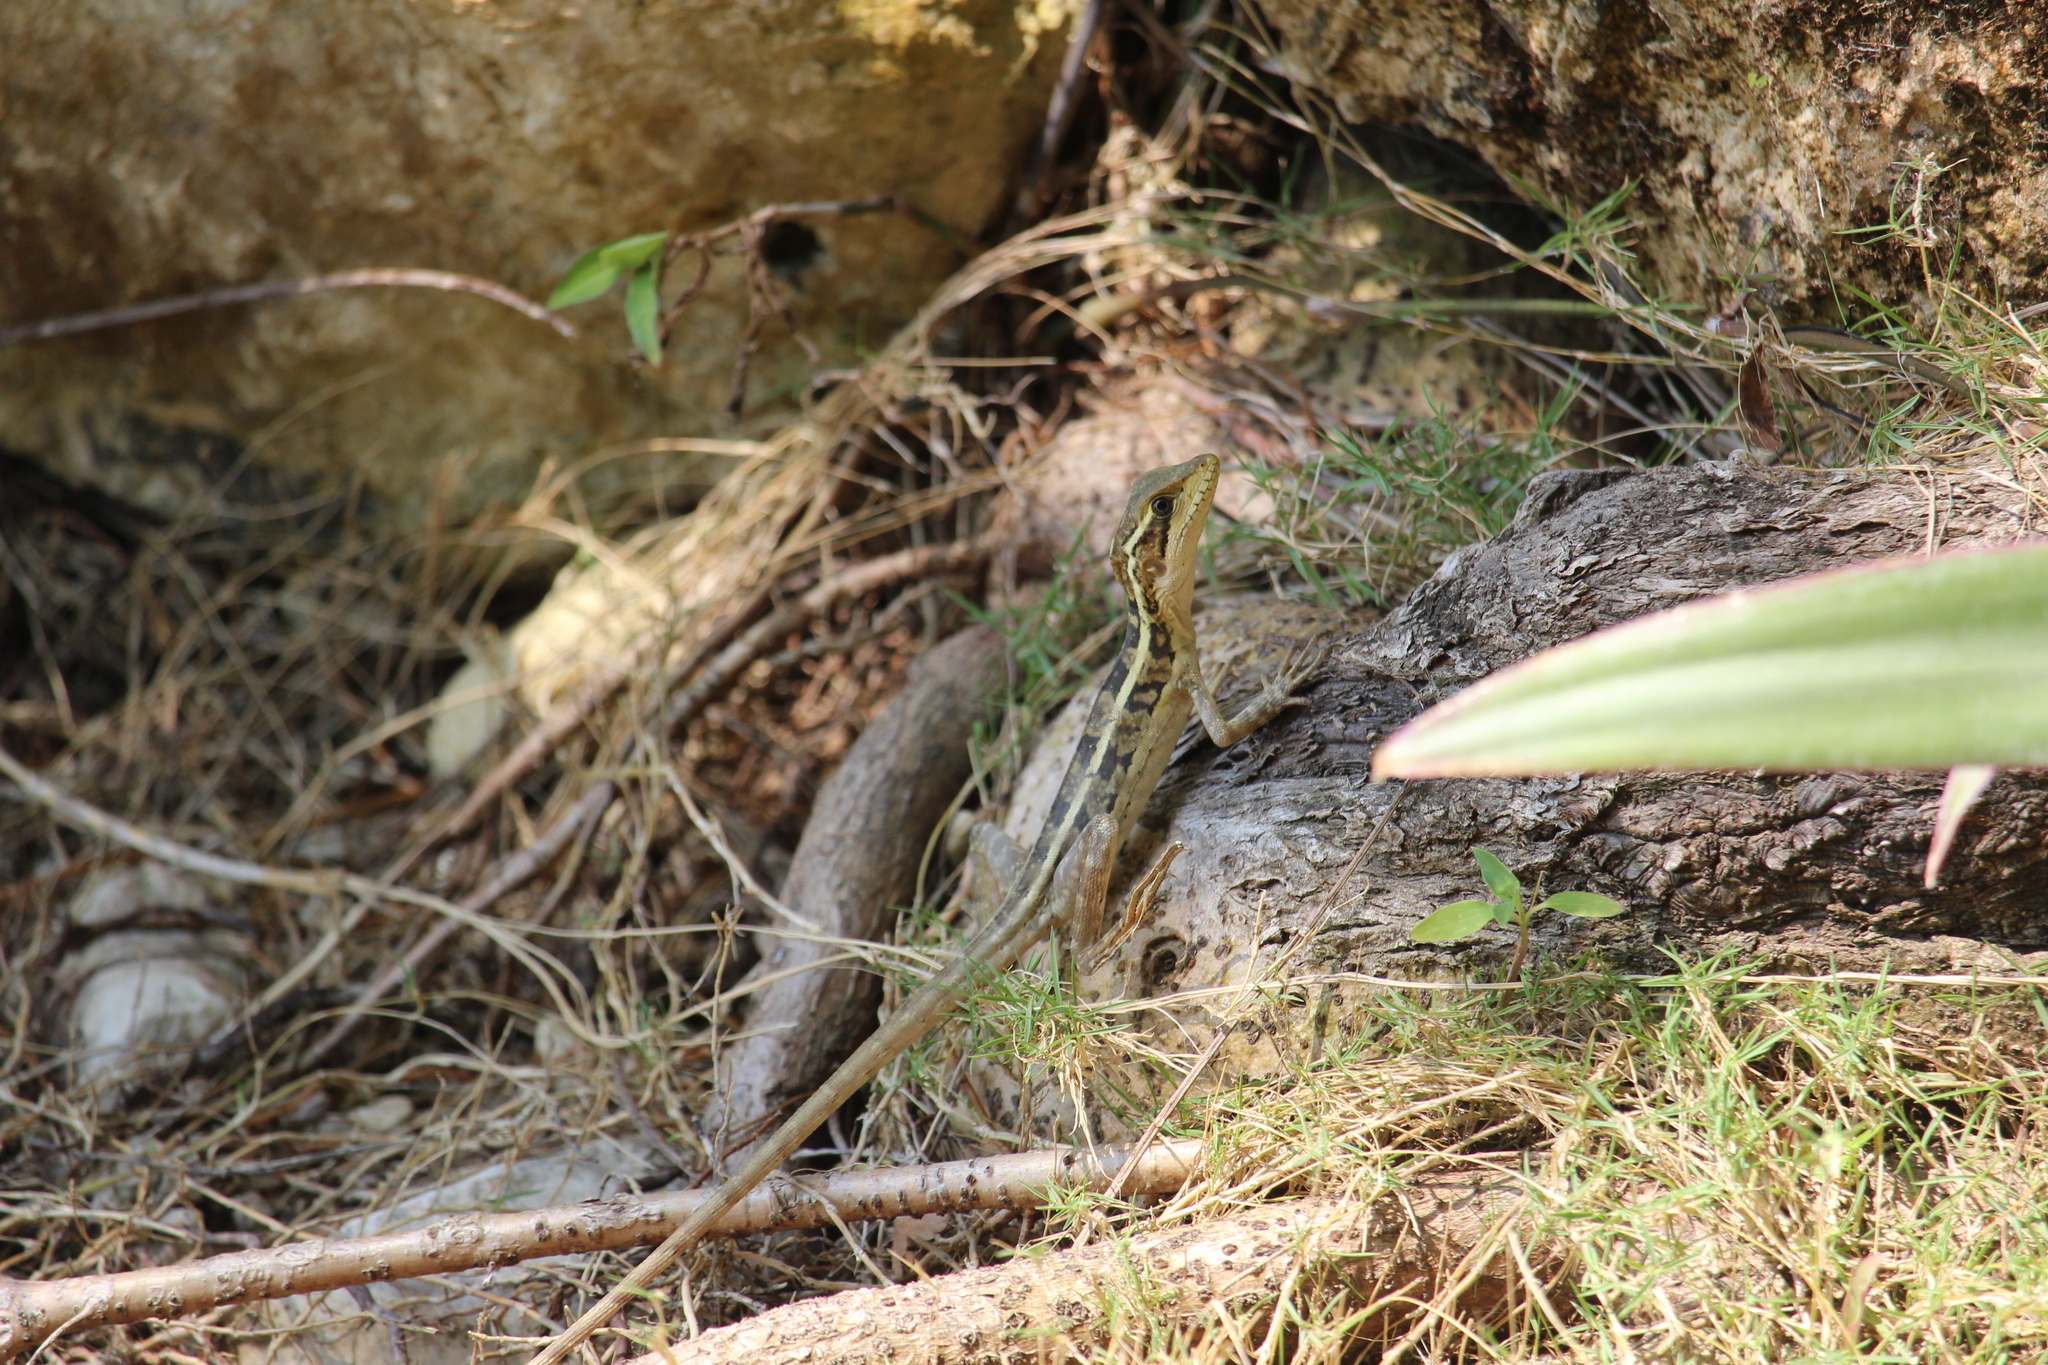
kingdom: Animalia
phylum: Chordata
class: Squamata
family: Corytophanidae
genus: Basiliscus
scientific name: Basiliscus vittatus
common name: Brown basilisk
